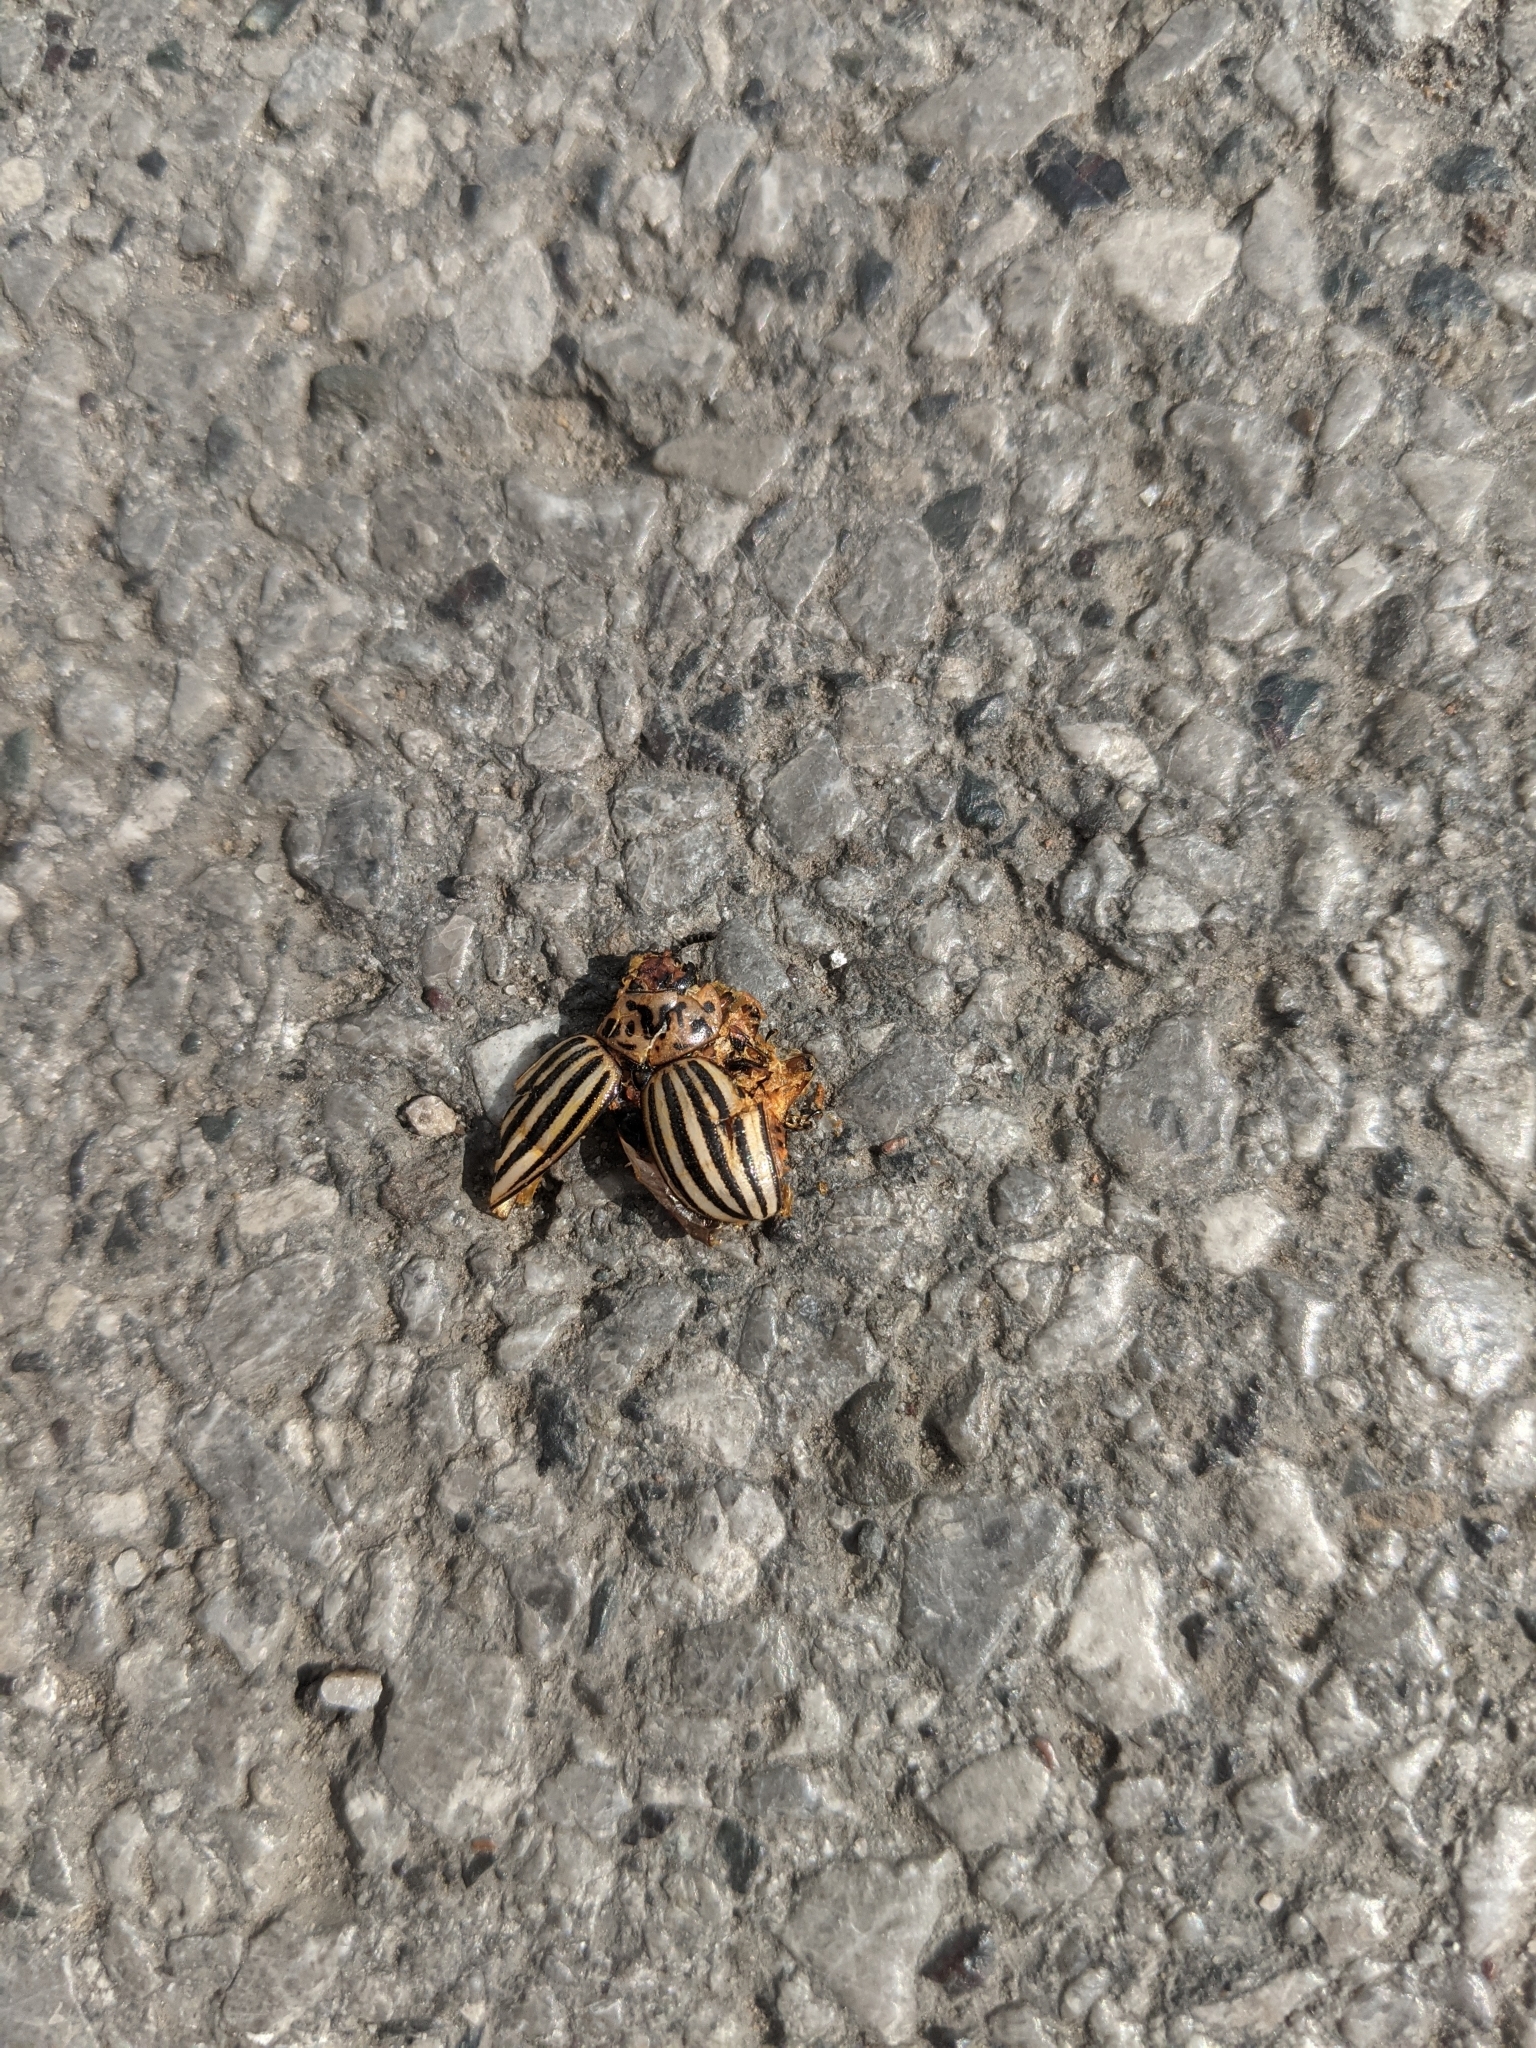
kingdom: Animalia
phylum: Arthropoda
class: Insecta
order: Coleoptera
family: Chrysomelidae
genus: Leptinotarsa
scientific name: Leptinotarsa decemlineata
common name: Colorado potato beetle
